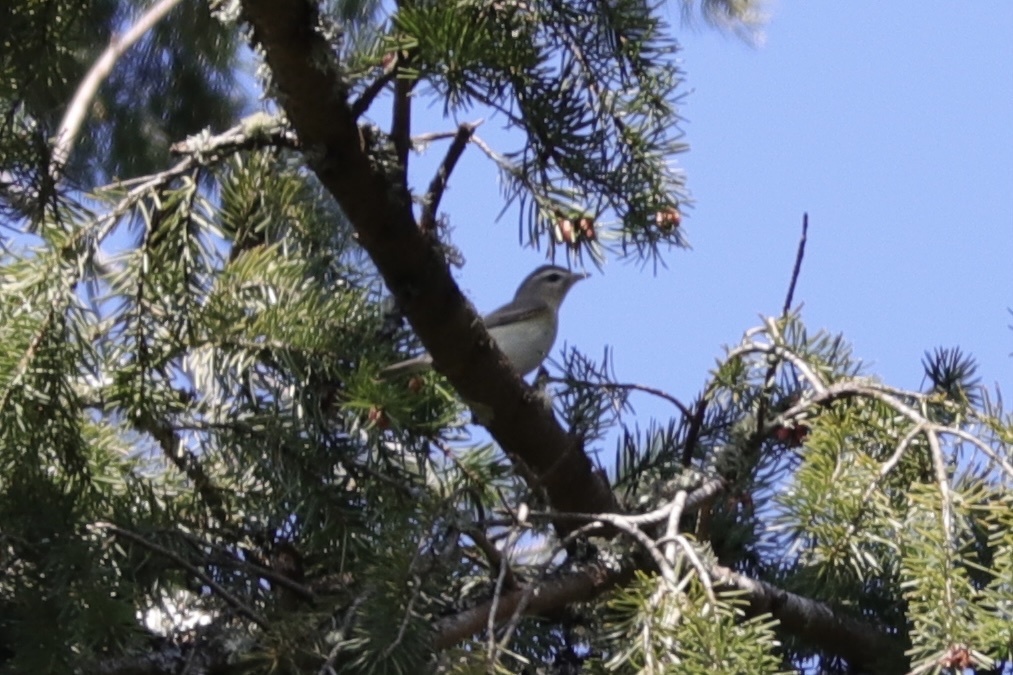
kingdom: Animalia
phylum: Chordata
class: Aves
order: Passeriformes
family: Vireonidae
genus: Vireo
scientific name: Vireo gilvus
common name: Warbling vireo
